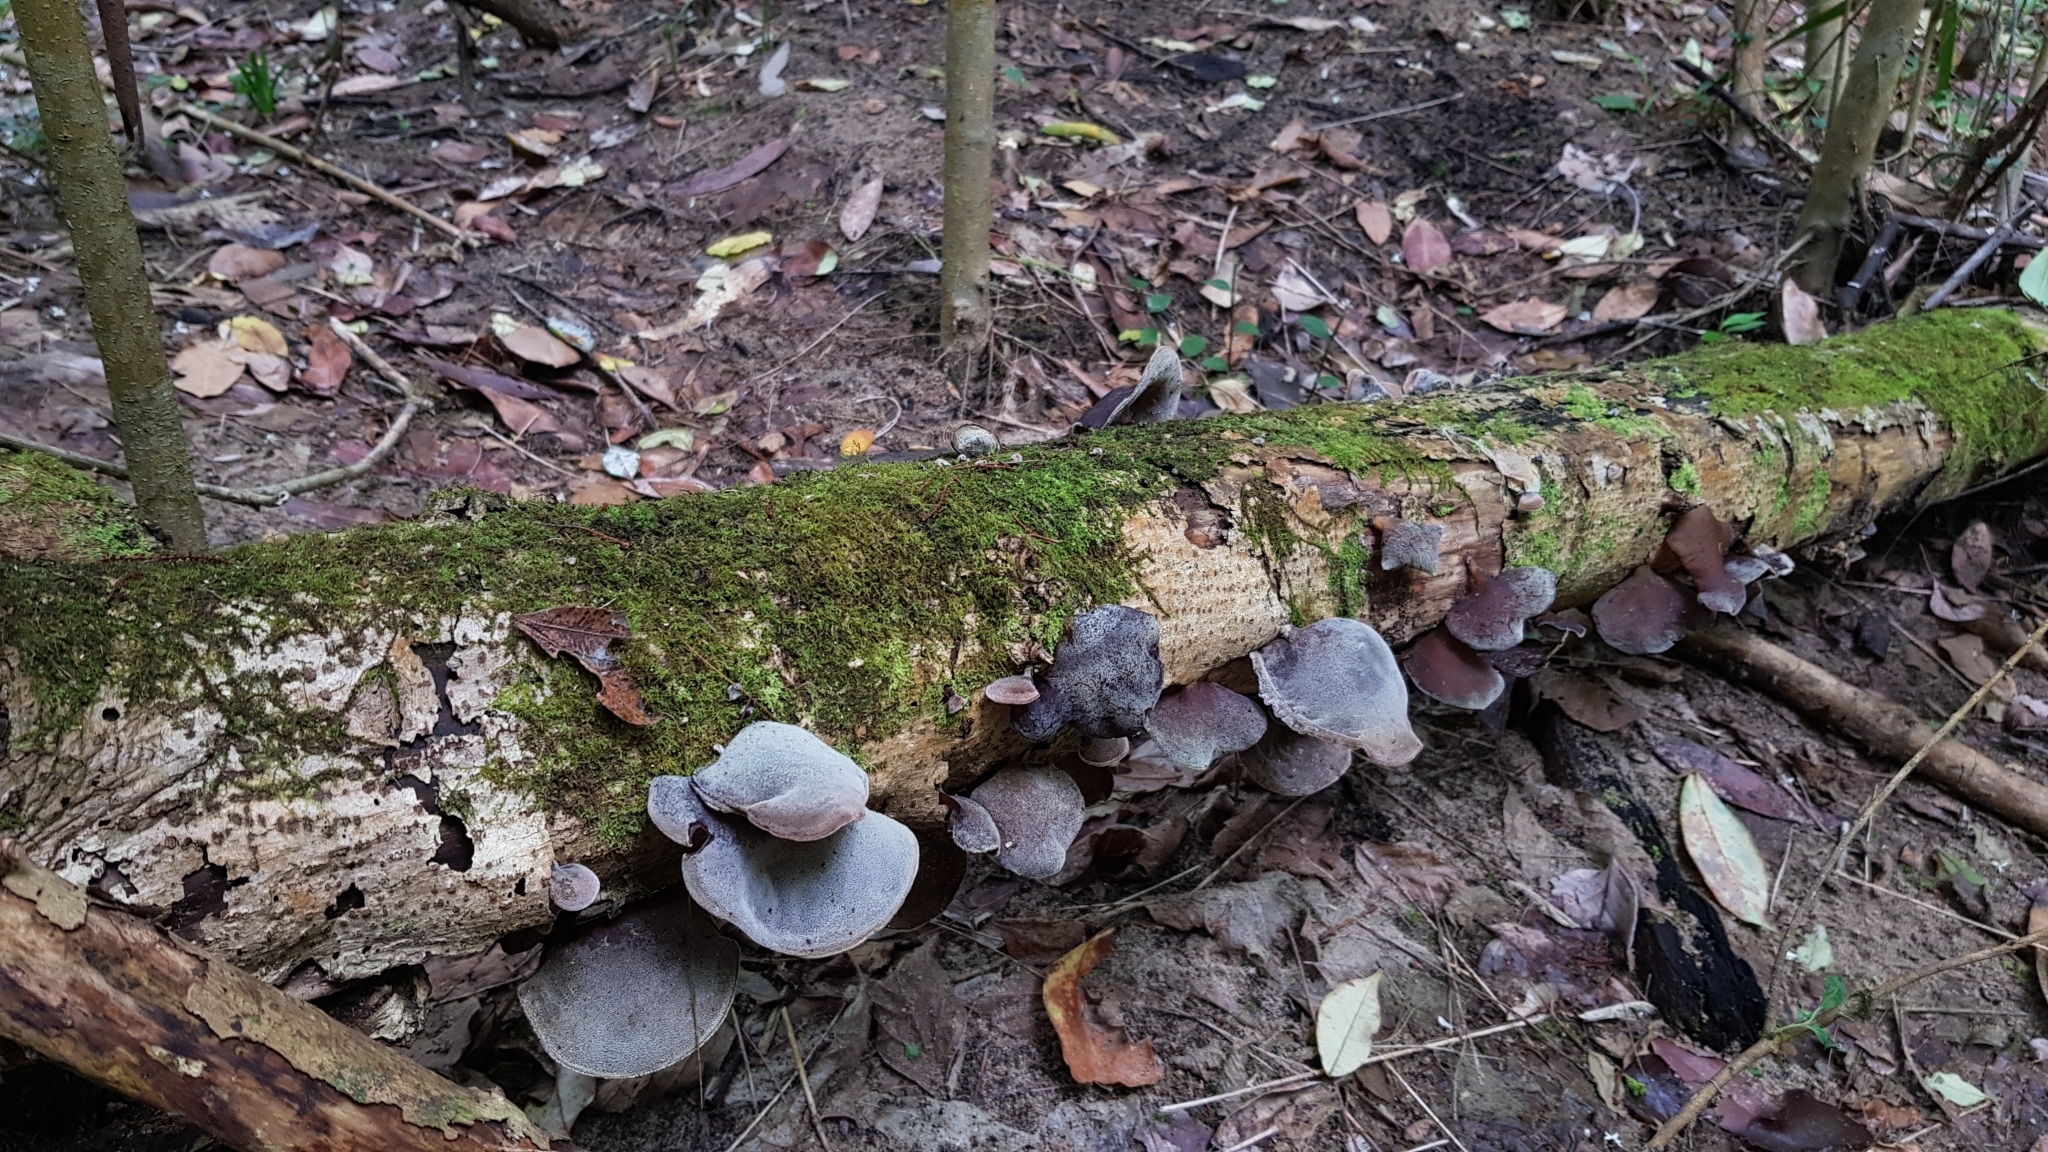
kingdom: Fungi
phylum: Basidiomycota
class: Agaricomycetes
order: Auriculariales
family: Auriculariaceae
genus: Auricularia
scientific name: Auricularia cornea
